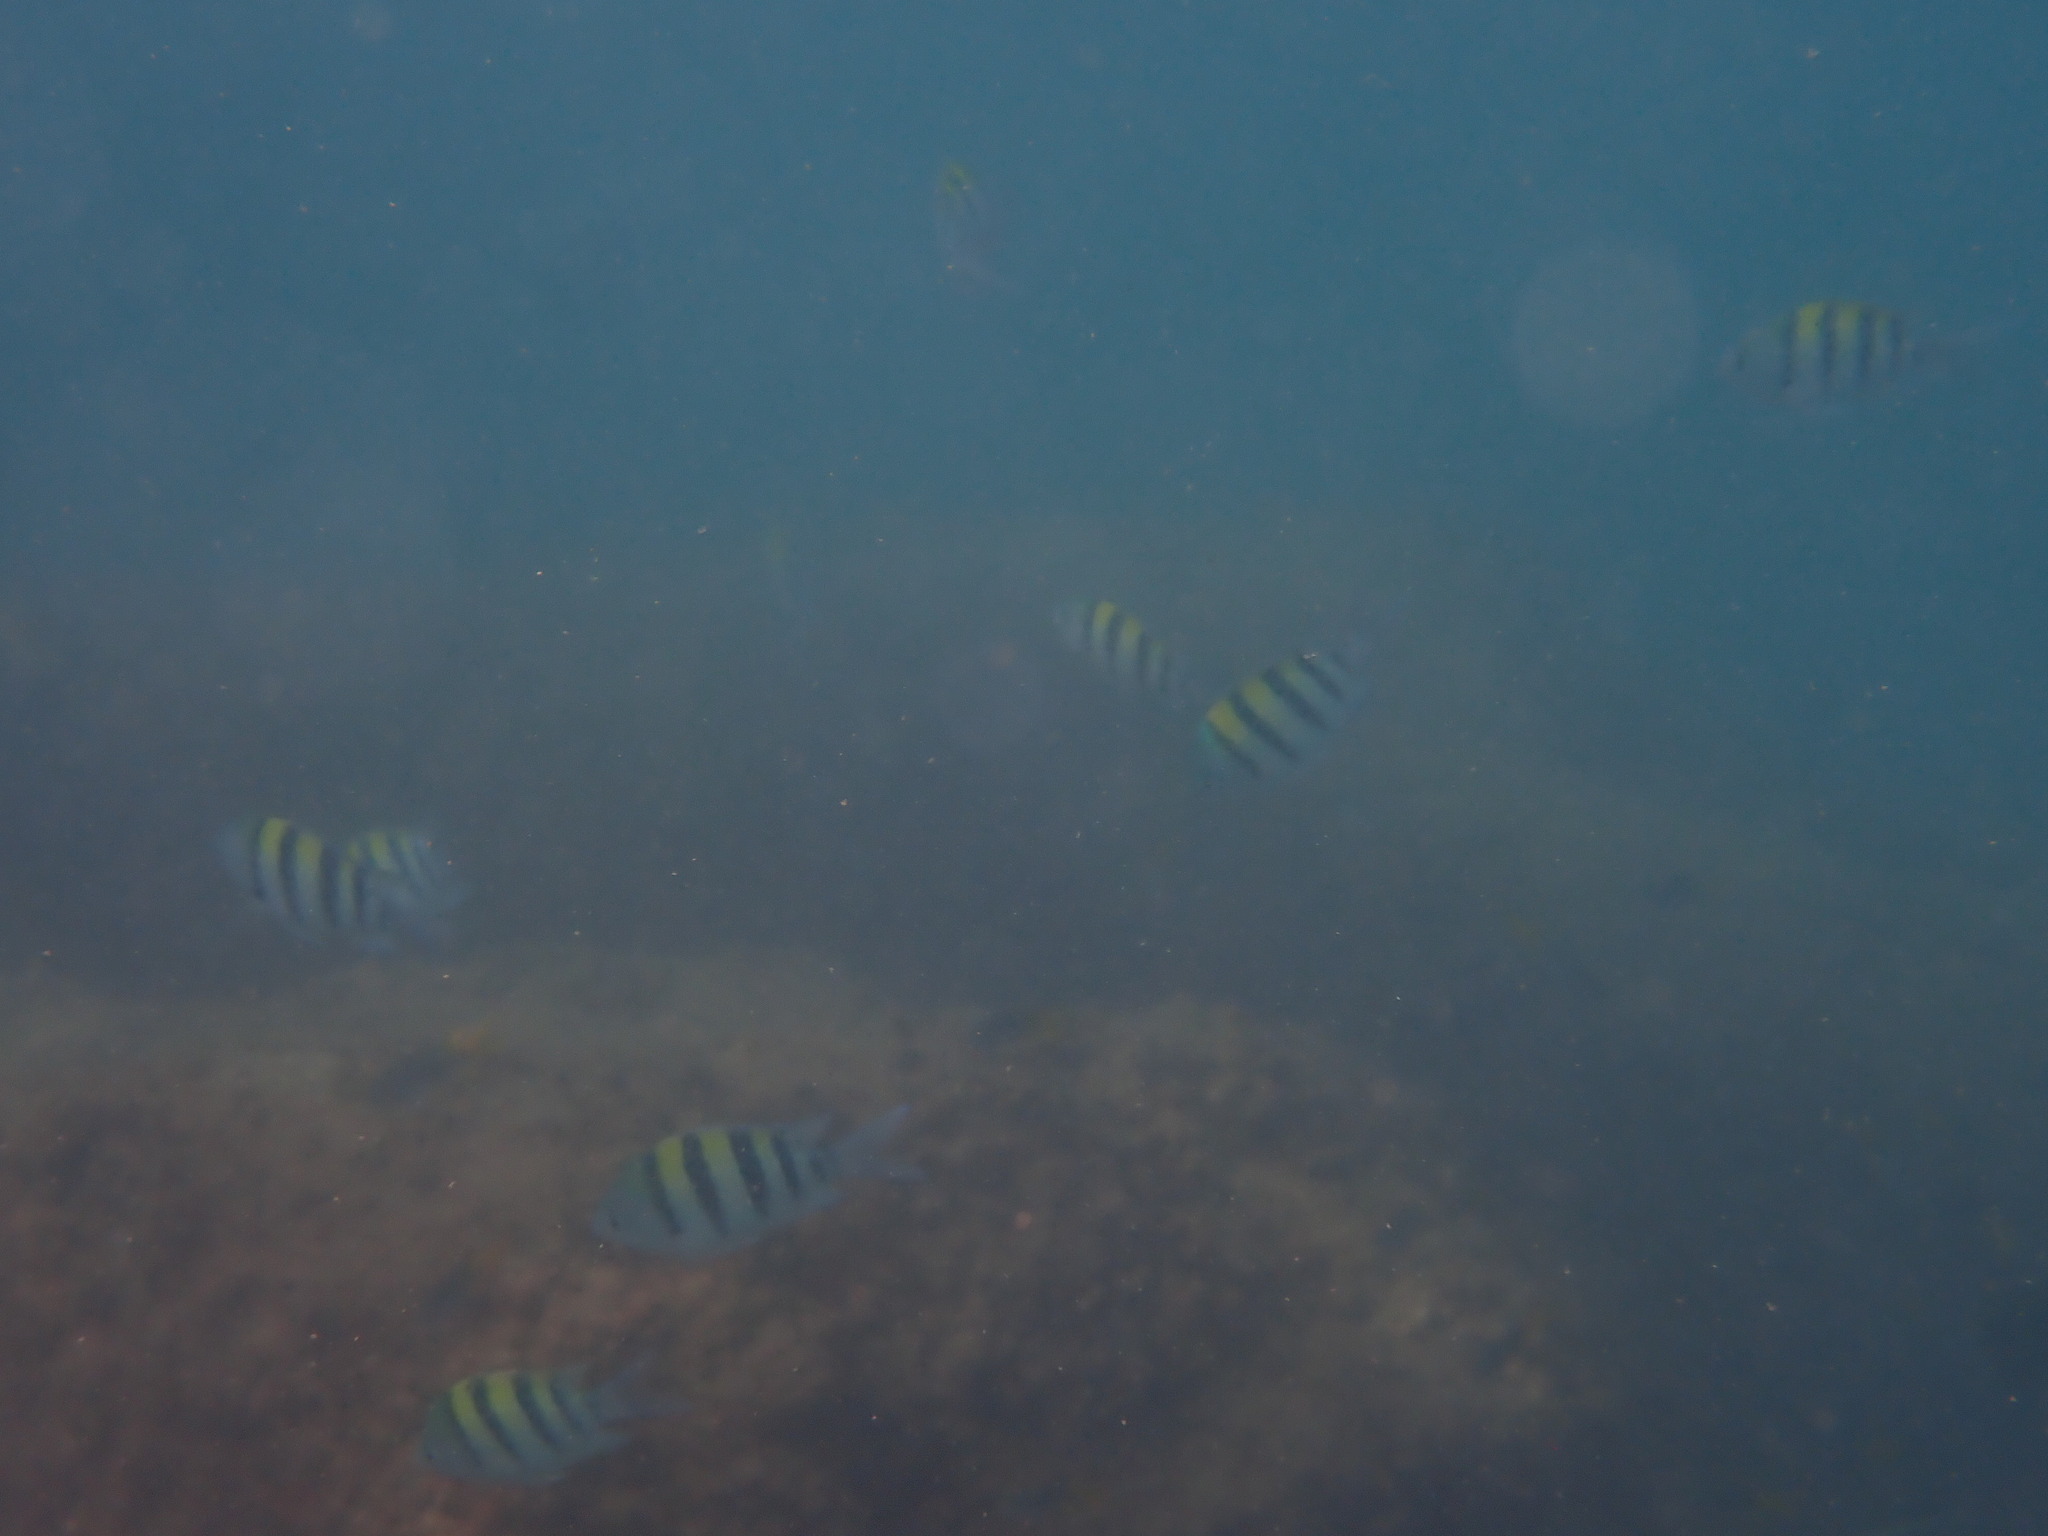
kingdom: Animalia
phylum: Chordata
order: Perciformes
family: Pomacentridae
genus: Abudefduf
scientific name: Abudefduf vaigiensis
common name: Indo-pacific sergeant
